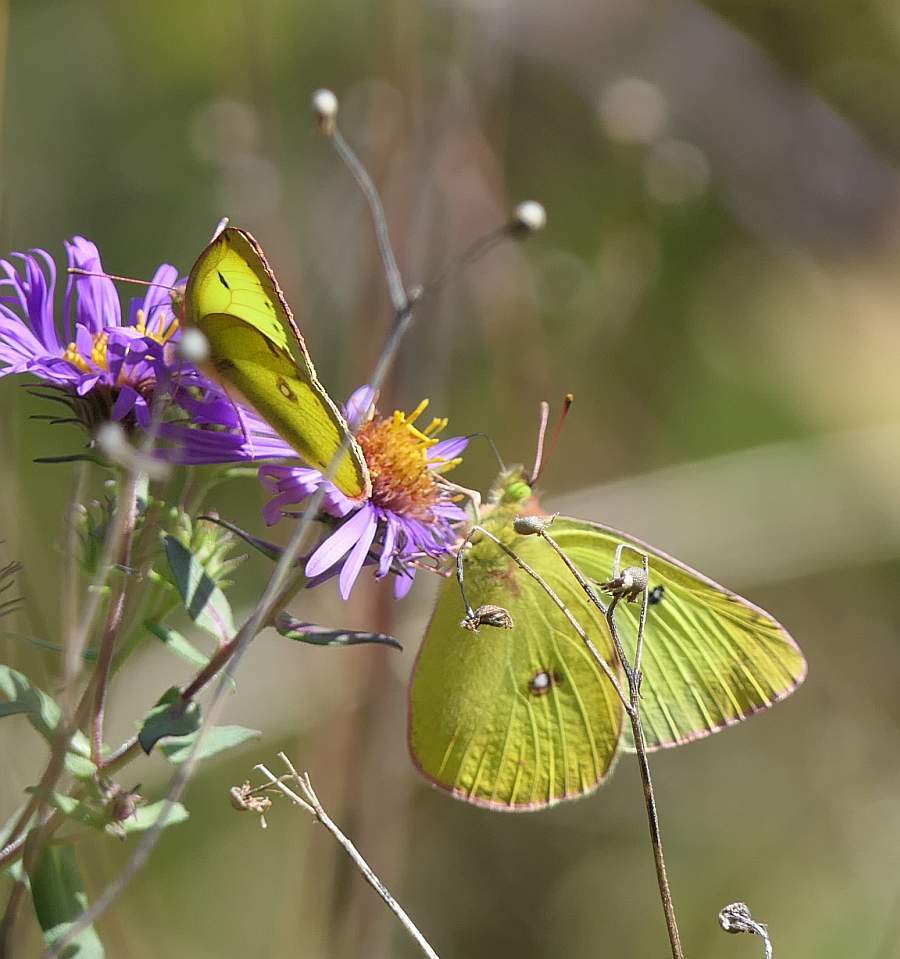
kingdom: Animalia
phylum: Arthropoda
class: Insecta
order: Lepidoptera
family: Pieridae
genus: Colias
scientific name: Colias philodice
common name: Clouded sulphur
